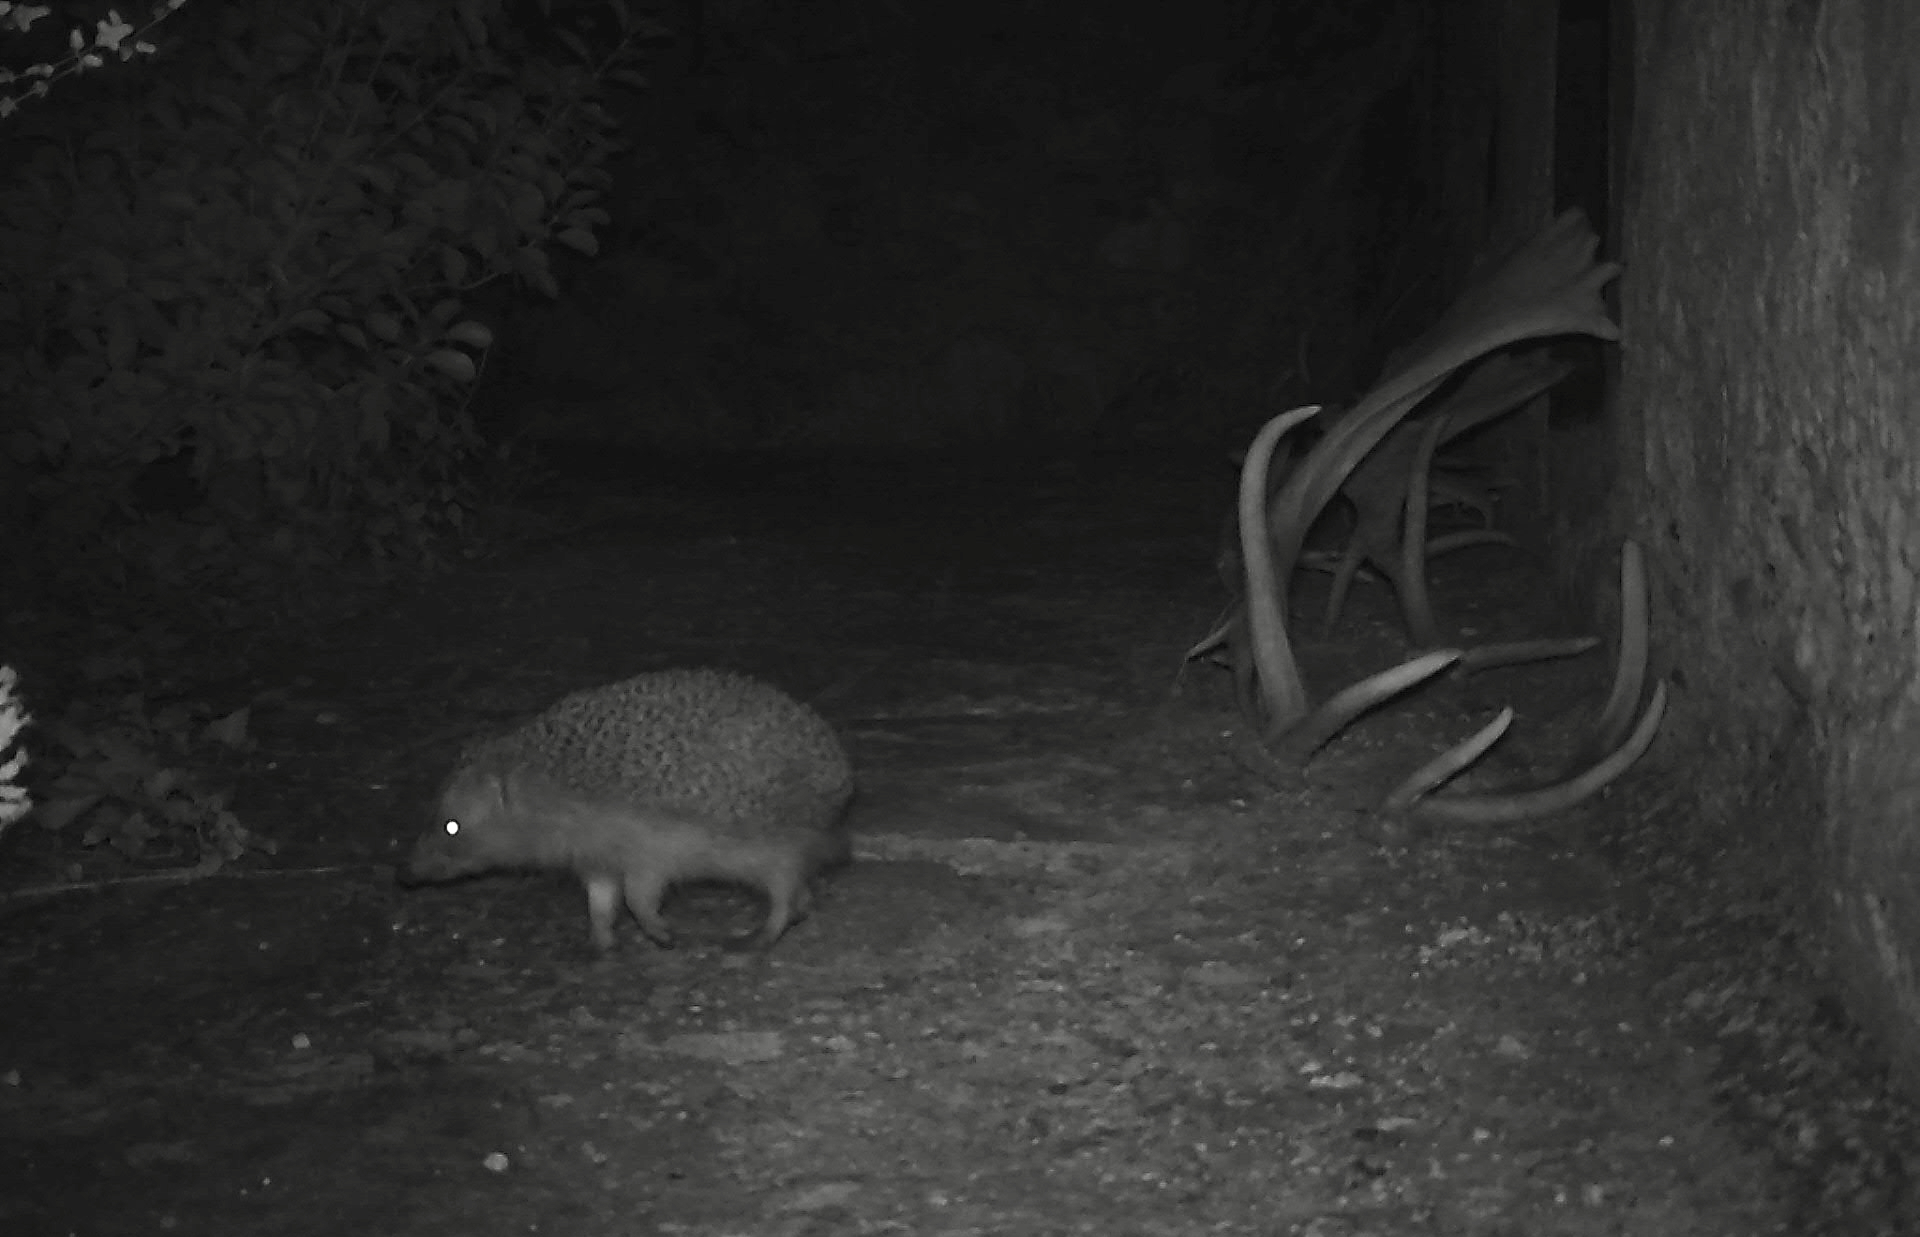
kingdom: Animalia
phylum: Chordata
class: Mammalia
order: Erinaceomorpha
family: Erinaceidae
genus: Erinaceus
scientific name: Erinaceus europaeus
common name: West european hedgehog
